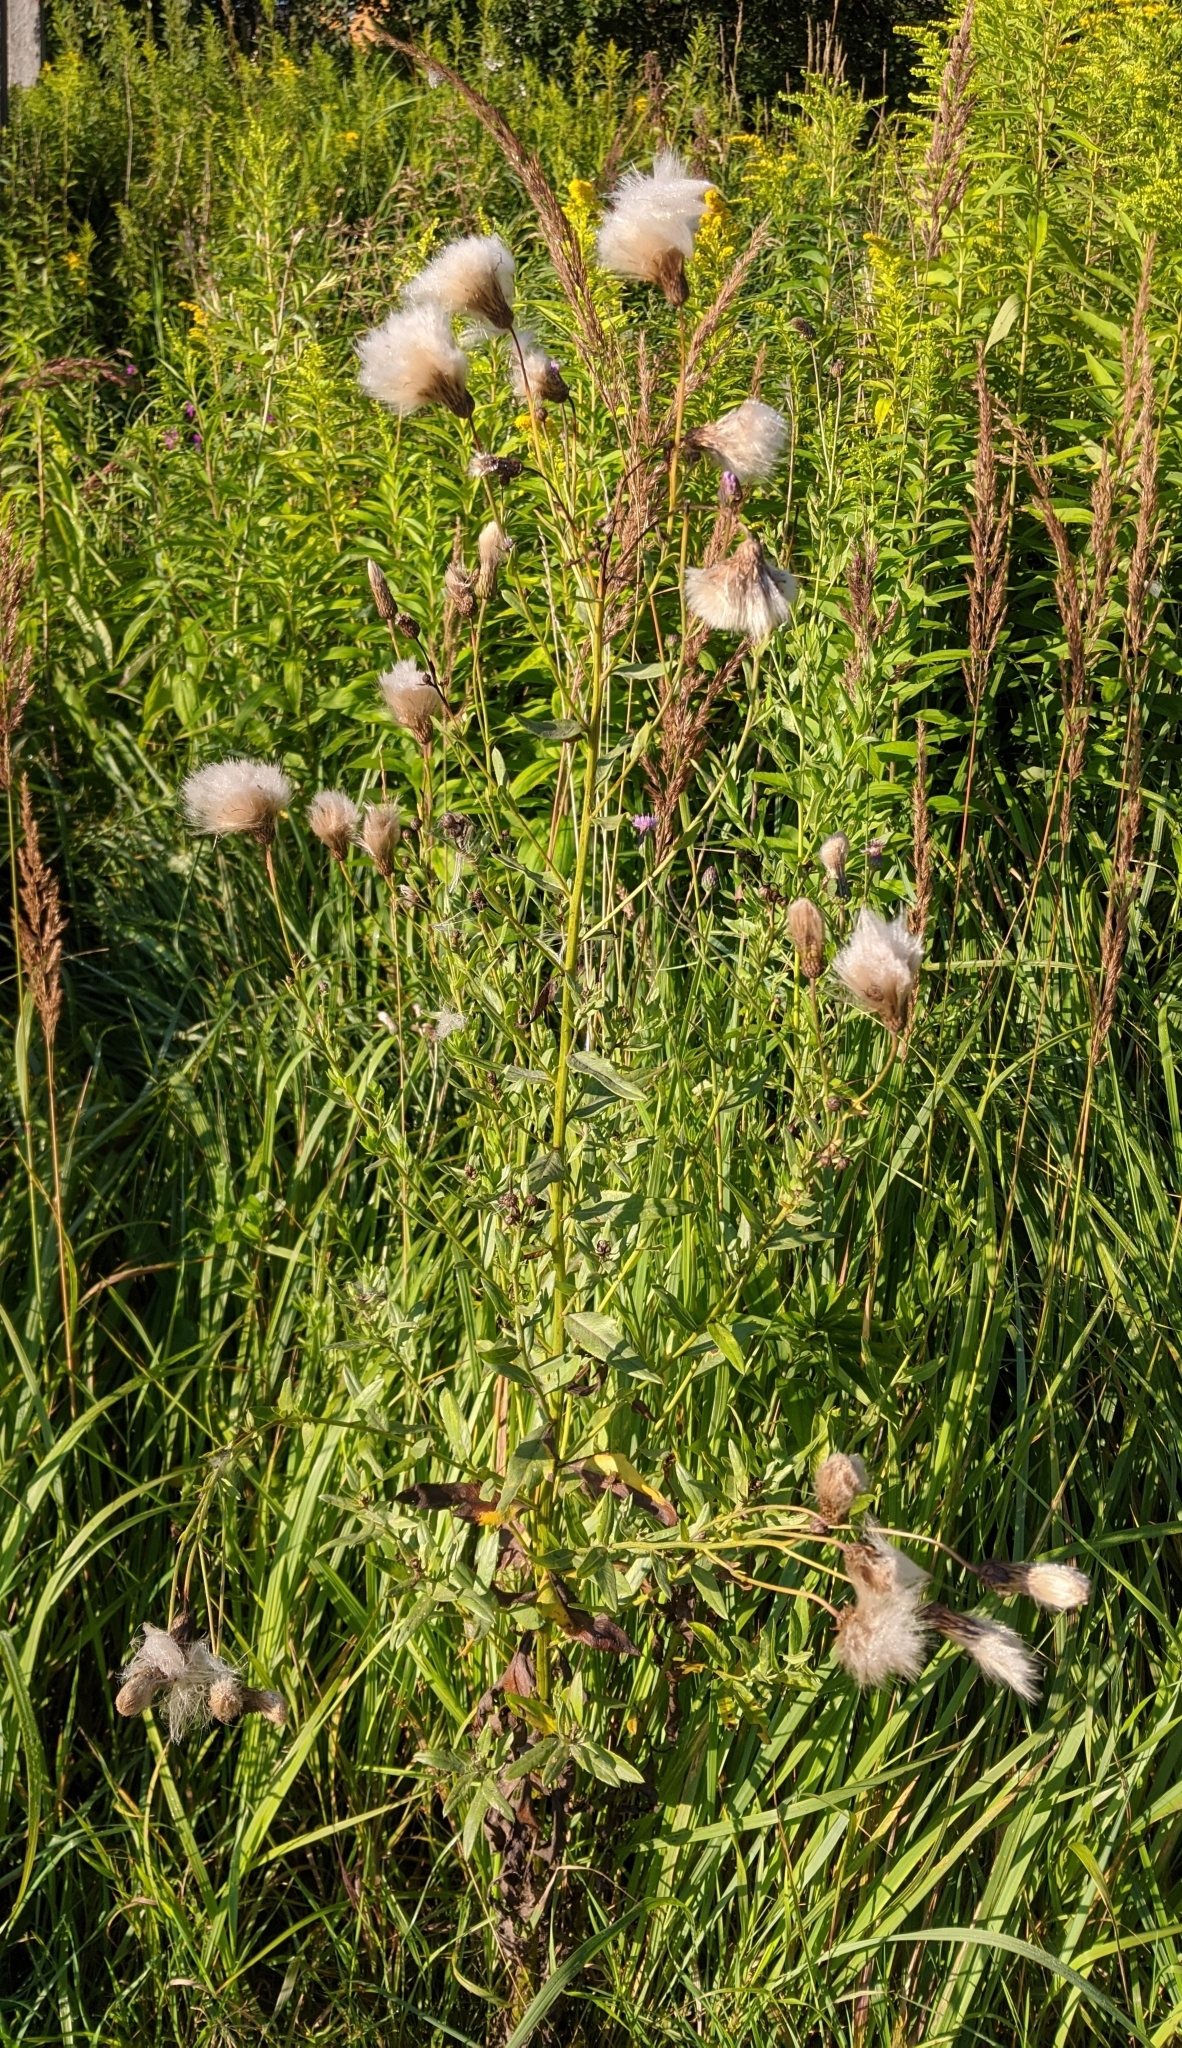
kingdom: Plantae
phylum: Tracheophyta
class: Magnoliopsida
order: Asterales
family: Asteraceae
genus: Cirsium
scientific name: Cirsium arvense
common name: Creeping thistle
